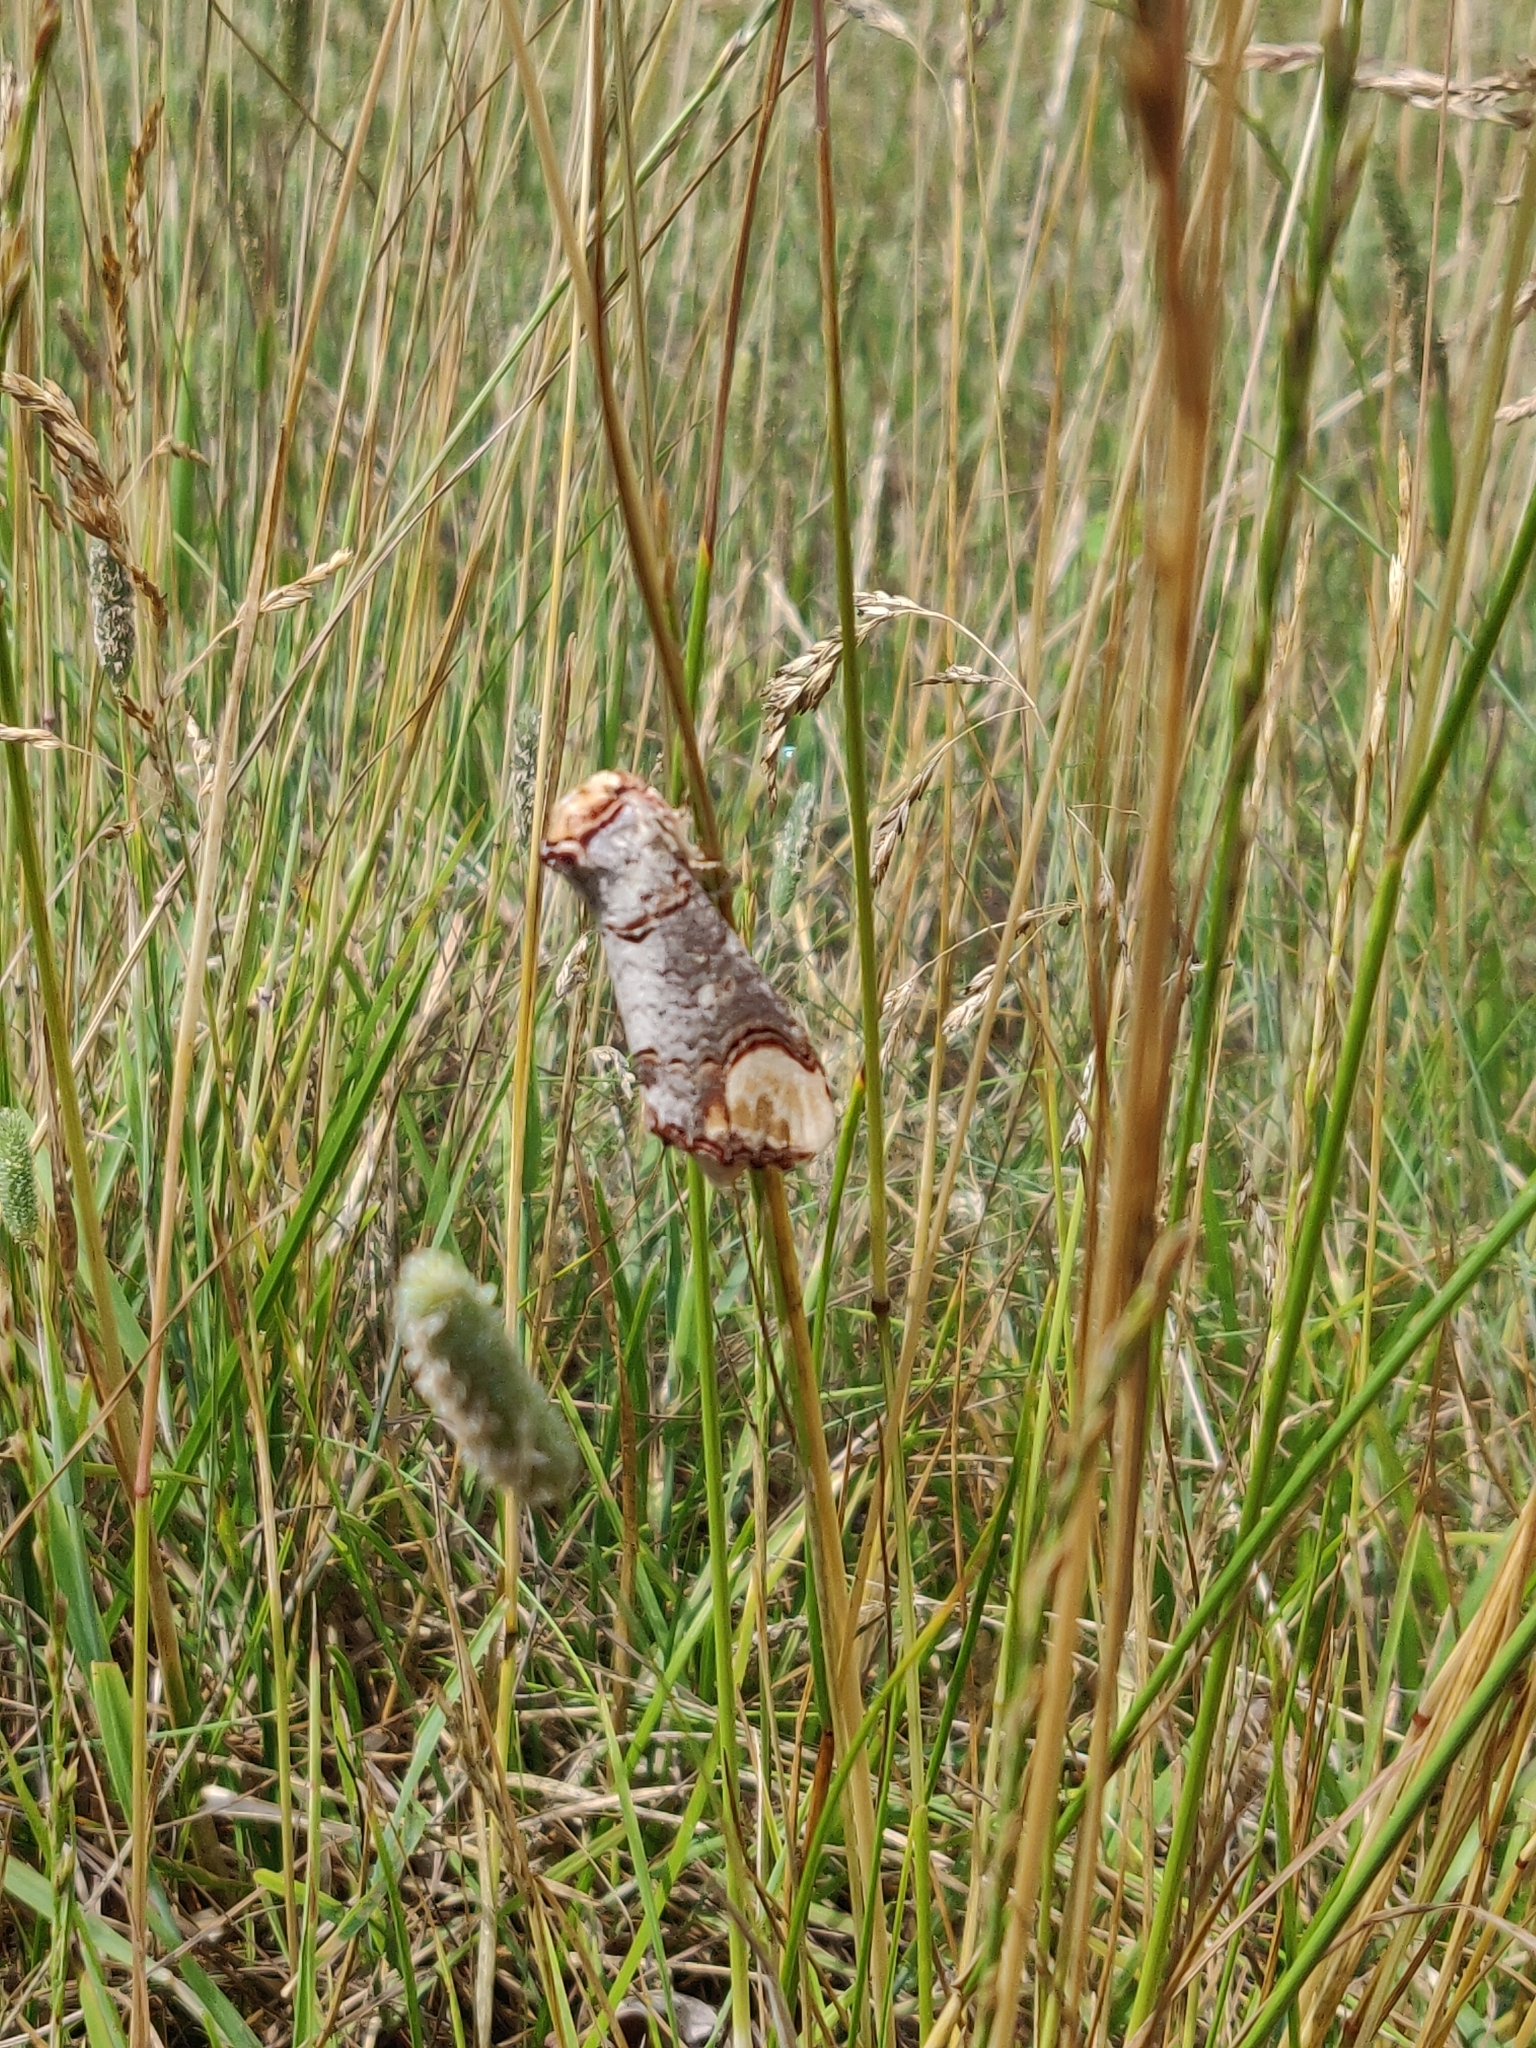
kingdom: Animalia
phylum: Arthropoda
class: Insecta
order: Lepidoptera
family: Notodontidae
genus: Phalera
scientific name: Phalera bucephala
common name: Buff-tip
